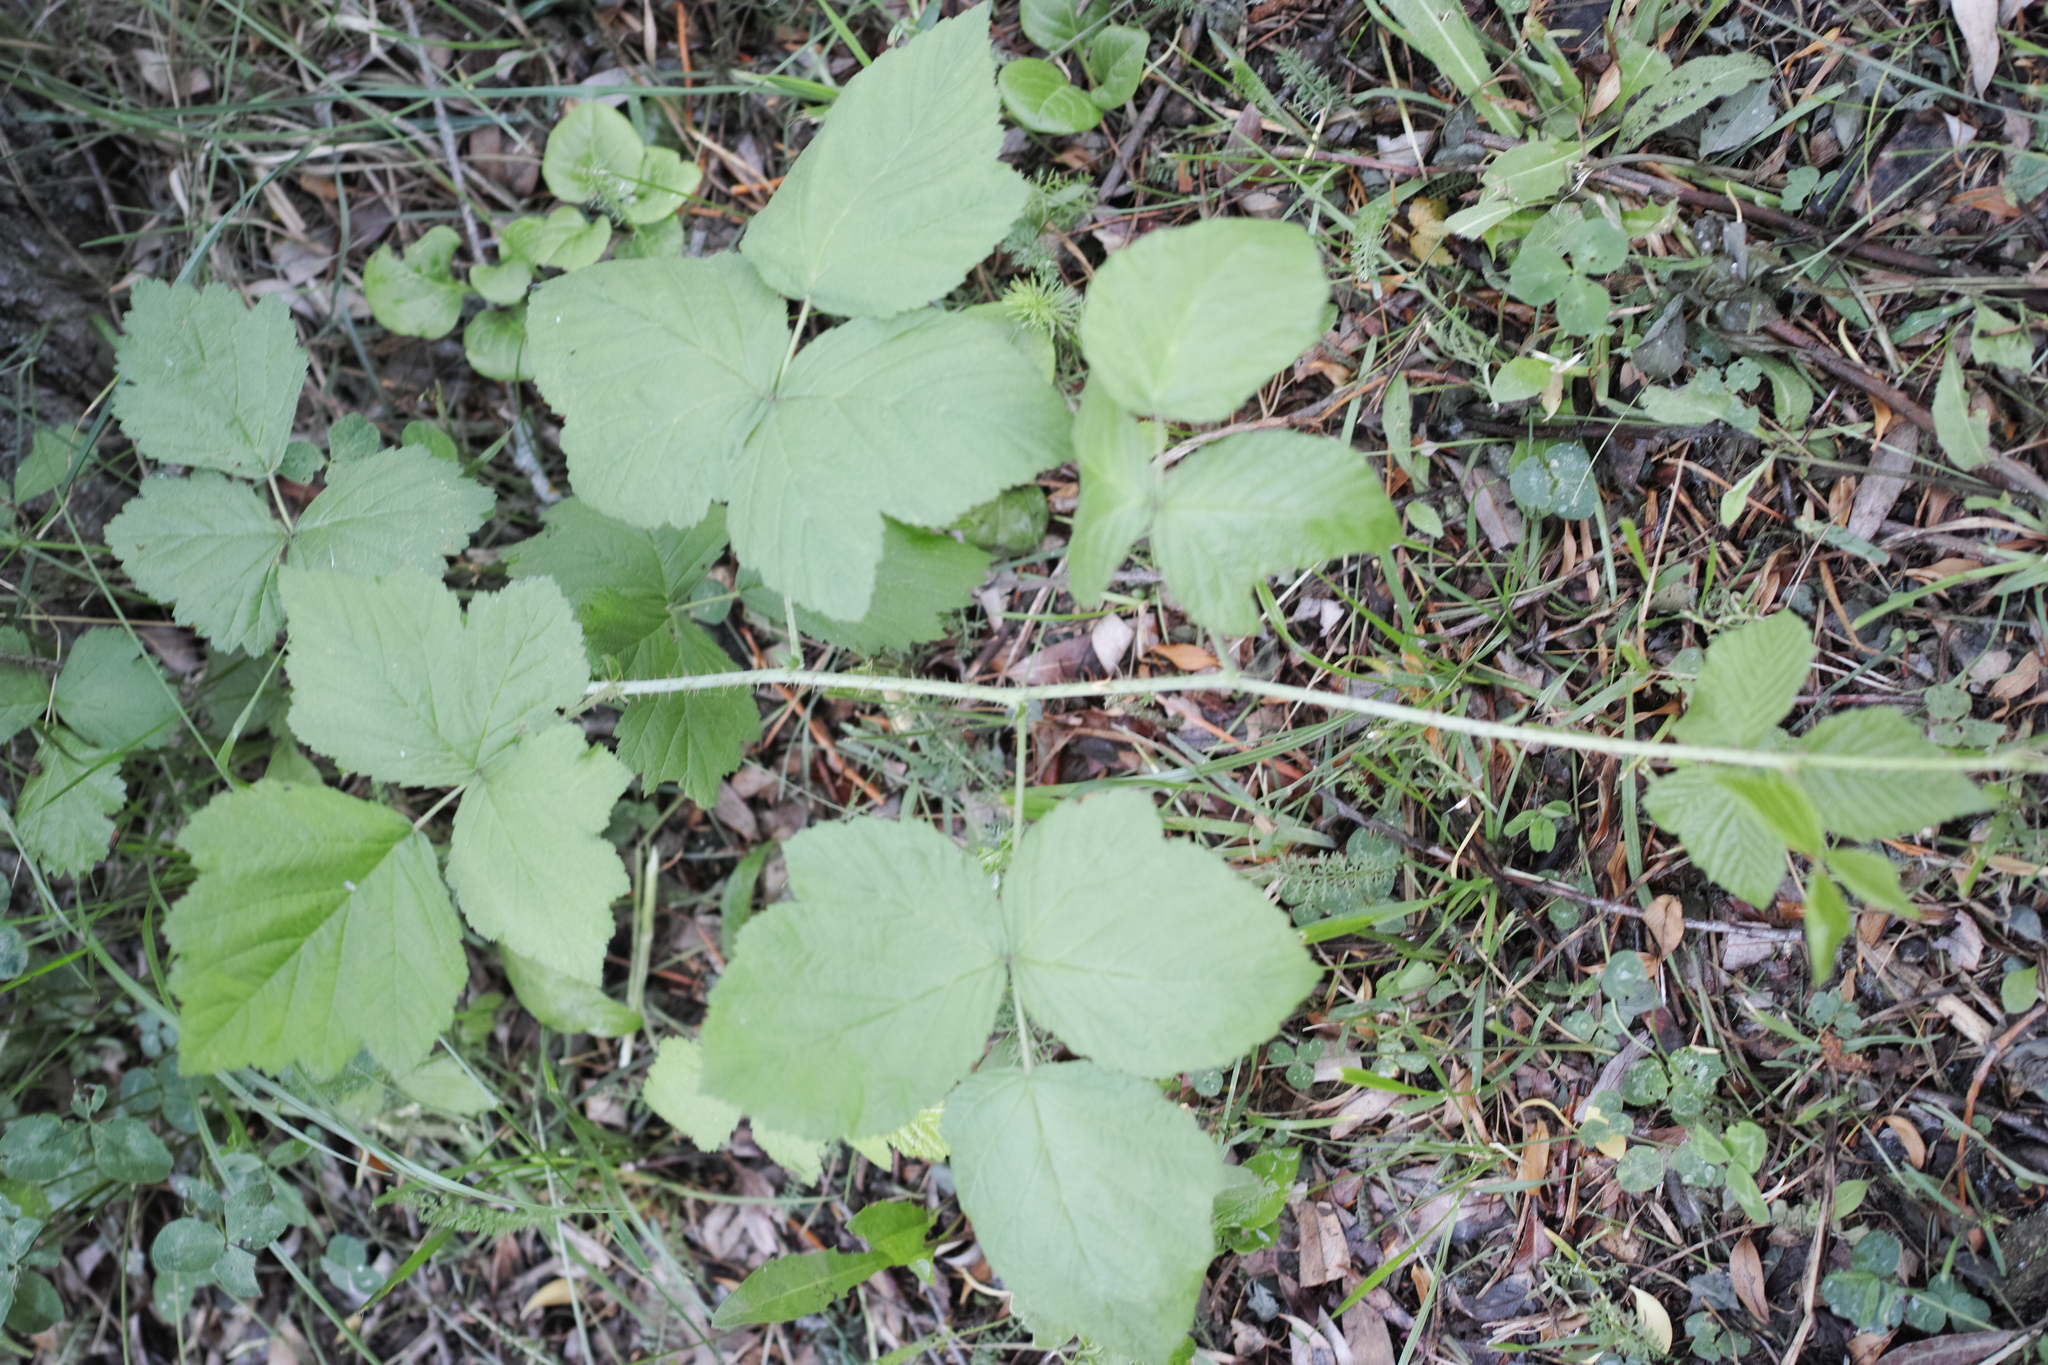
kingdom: Plantae
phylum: Tracheophyta
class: Magnoliopsida
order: Rosales
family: Rosaceae
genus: Rubus
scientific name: Rubus caesius
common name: Dewberry
